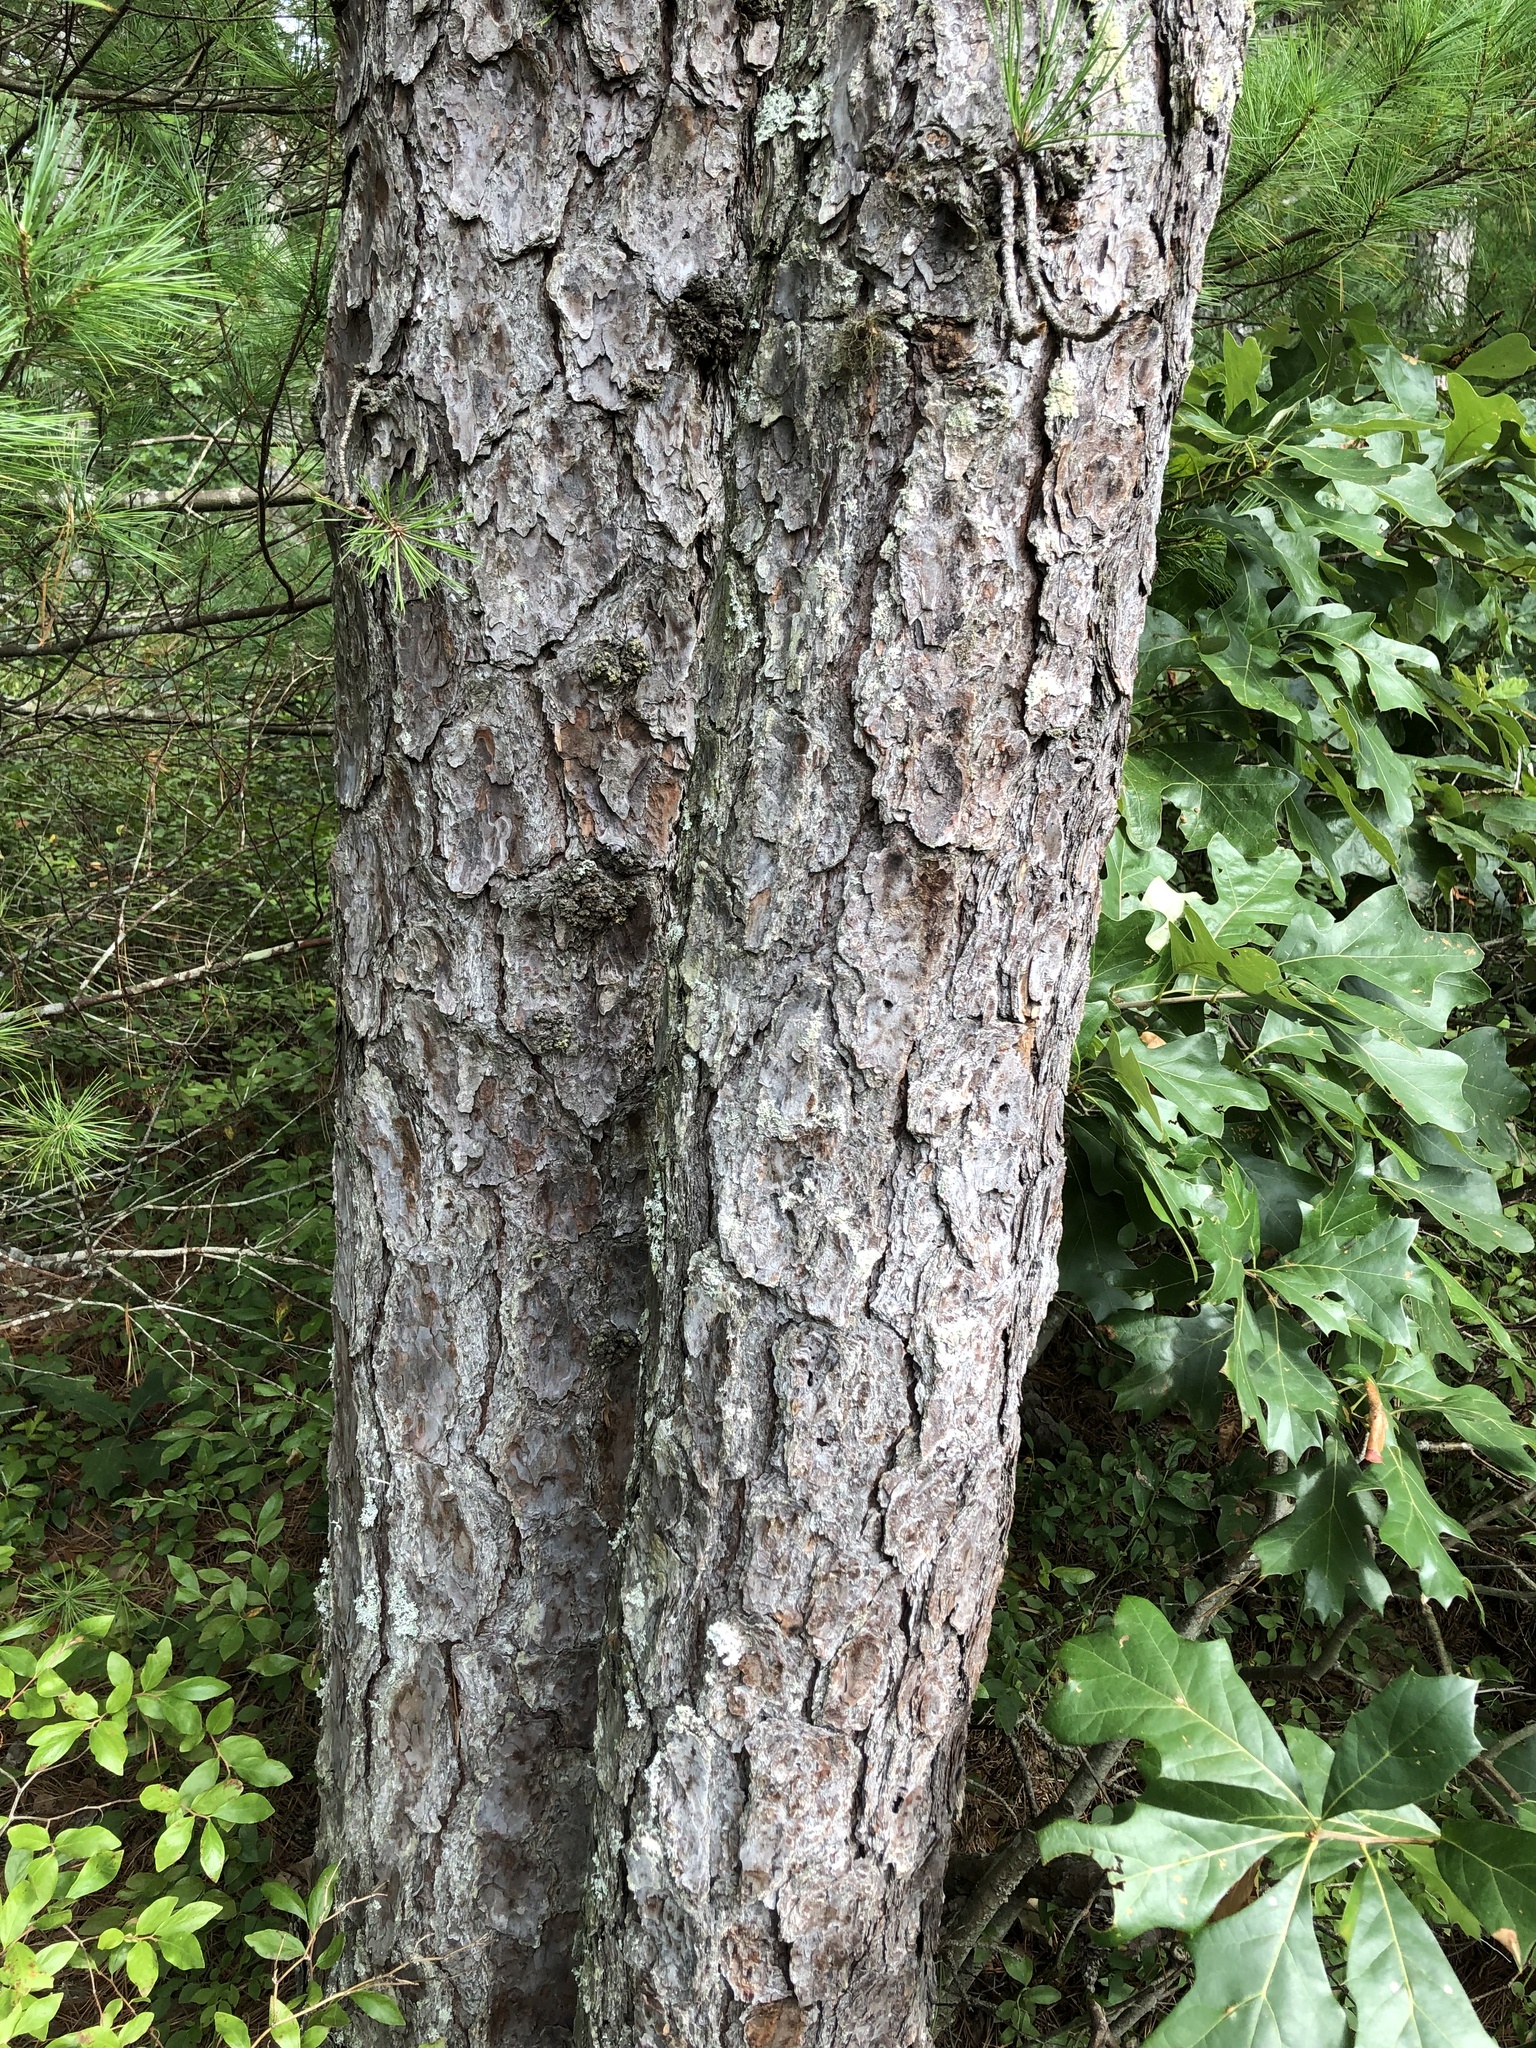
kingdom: Plantae
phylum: Tracheophyta
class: Pinopsida
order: Pinales
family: Pinaceae
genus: Pinus
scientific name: Pinus rigida
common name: Pitch pine
